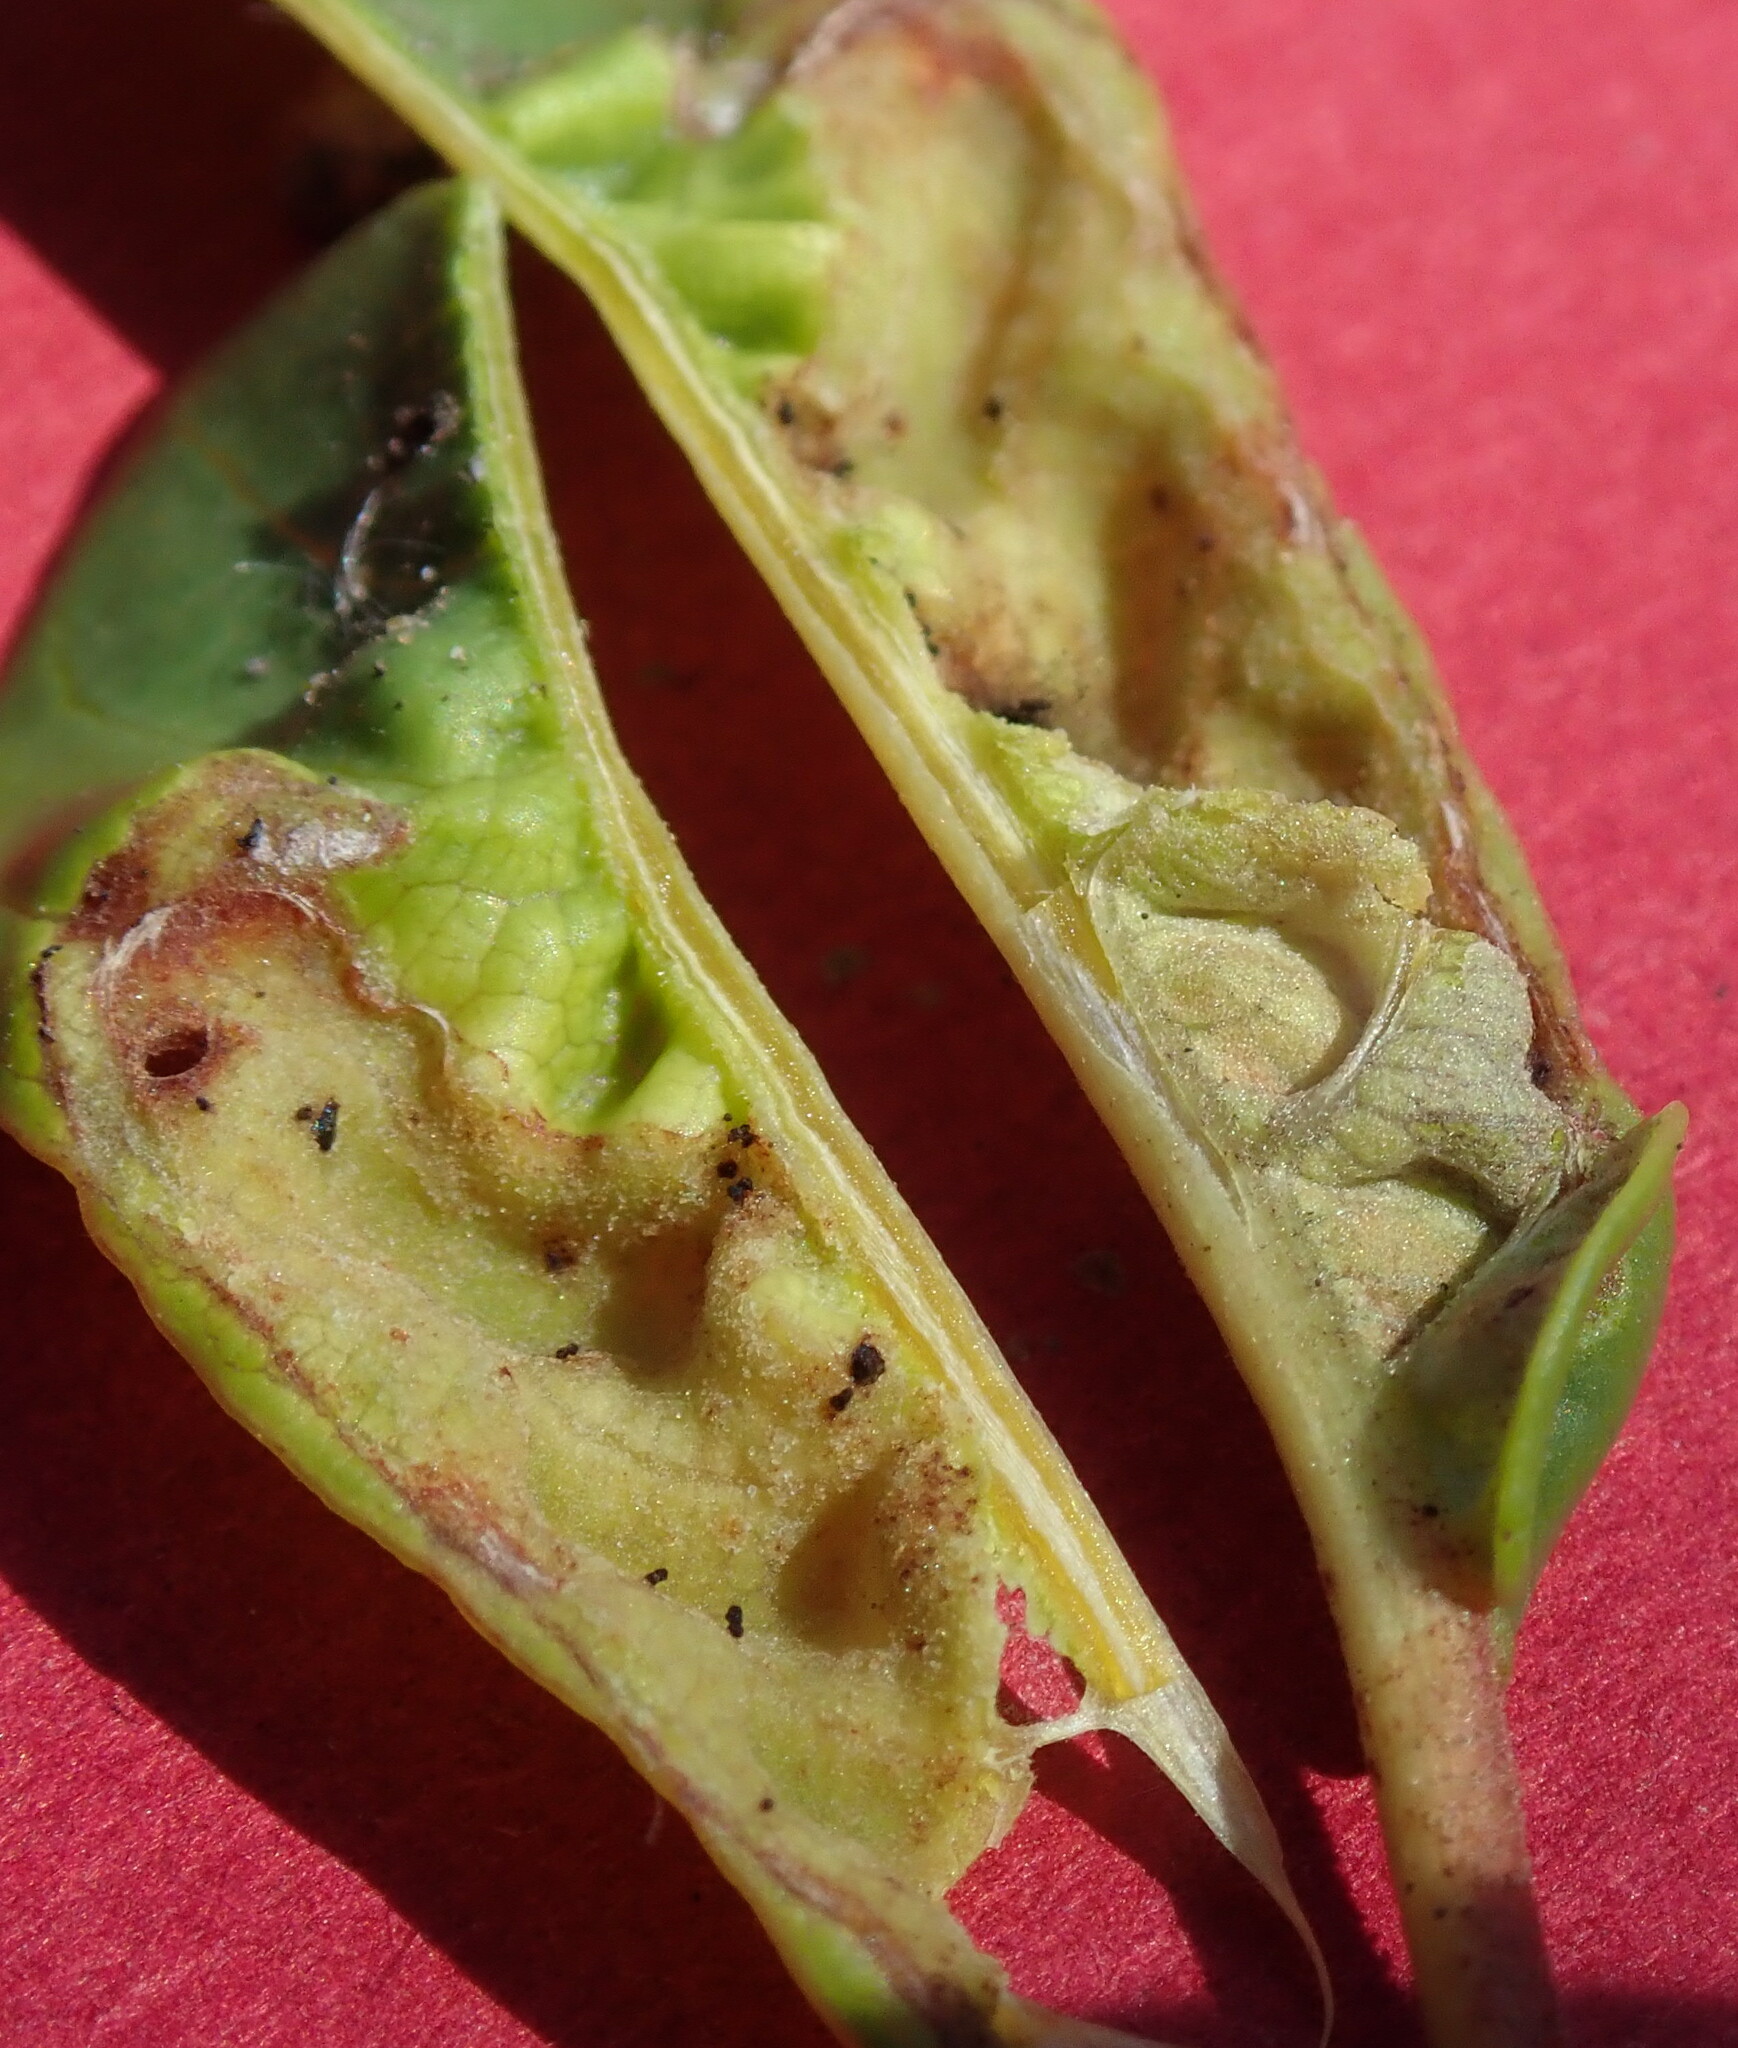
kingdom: Animalia
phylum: Arthropoda
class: Insecta
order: Lepidoptera
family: Cosmopterigidae
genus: Sorhagenia
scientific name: Sorhagenia nimbosus
